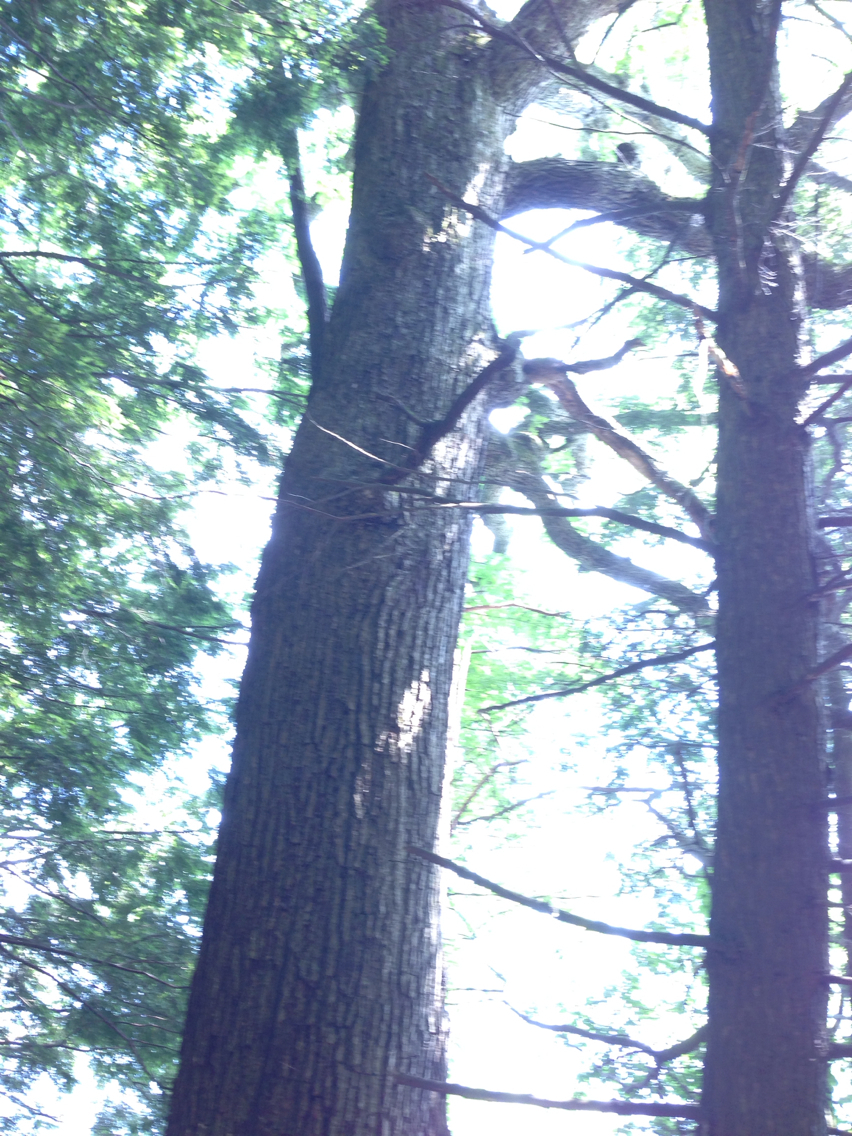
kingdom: Plantae
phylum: Tracheophyta
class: Magnoliopsida
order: Fagales
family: Fagaceae
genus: Quercus
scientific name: Quercus alba
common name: White oak
